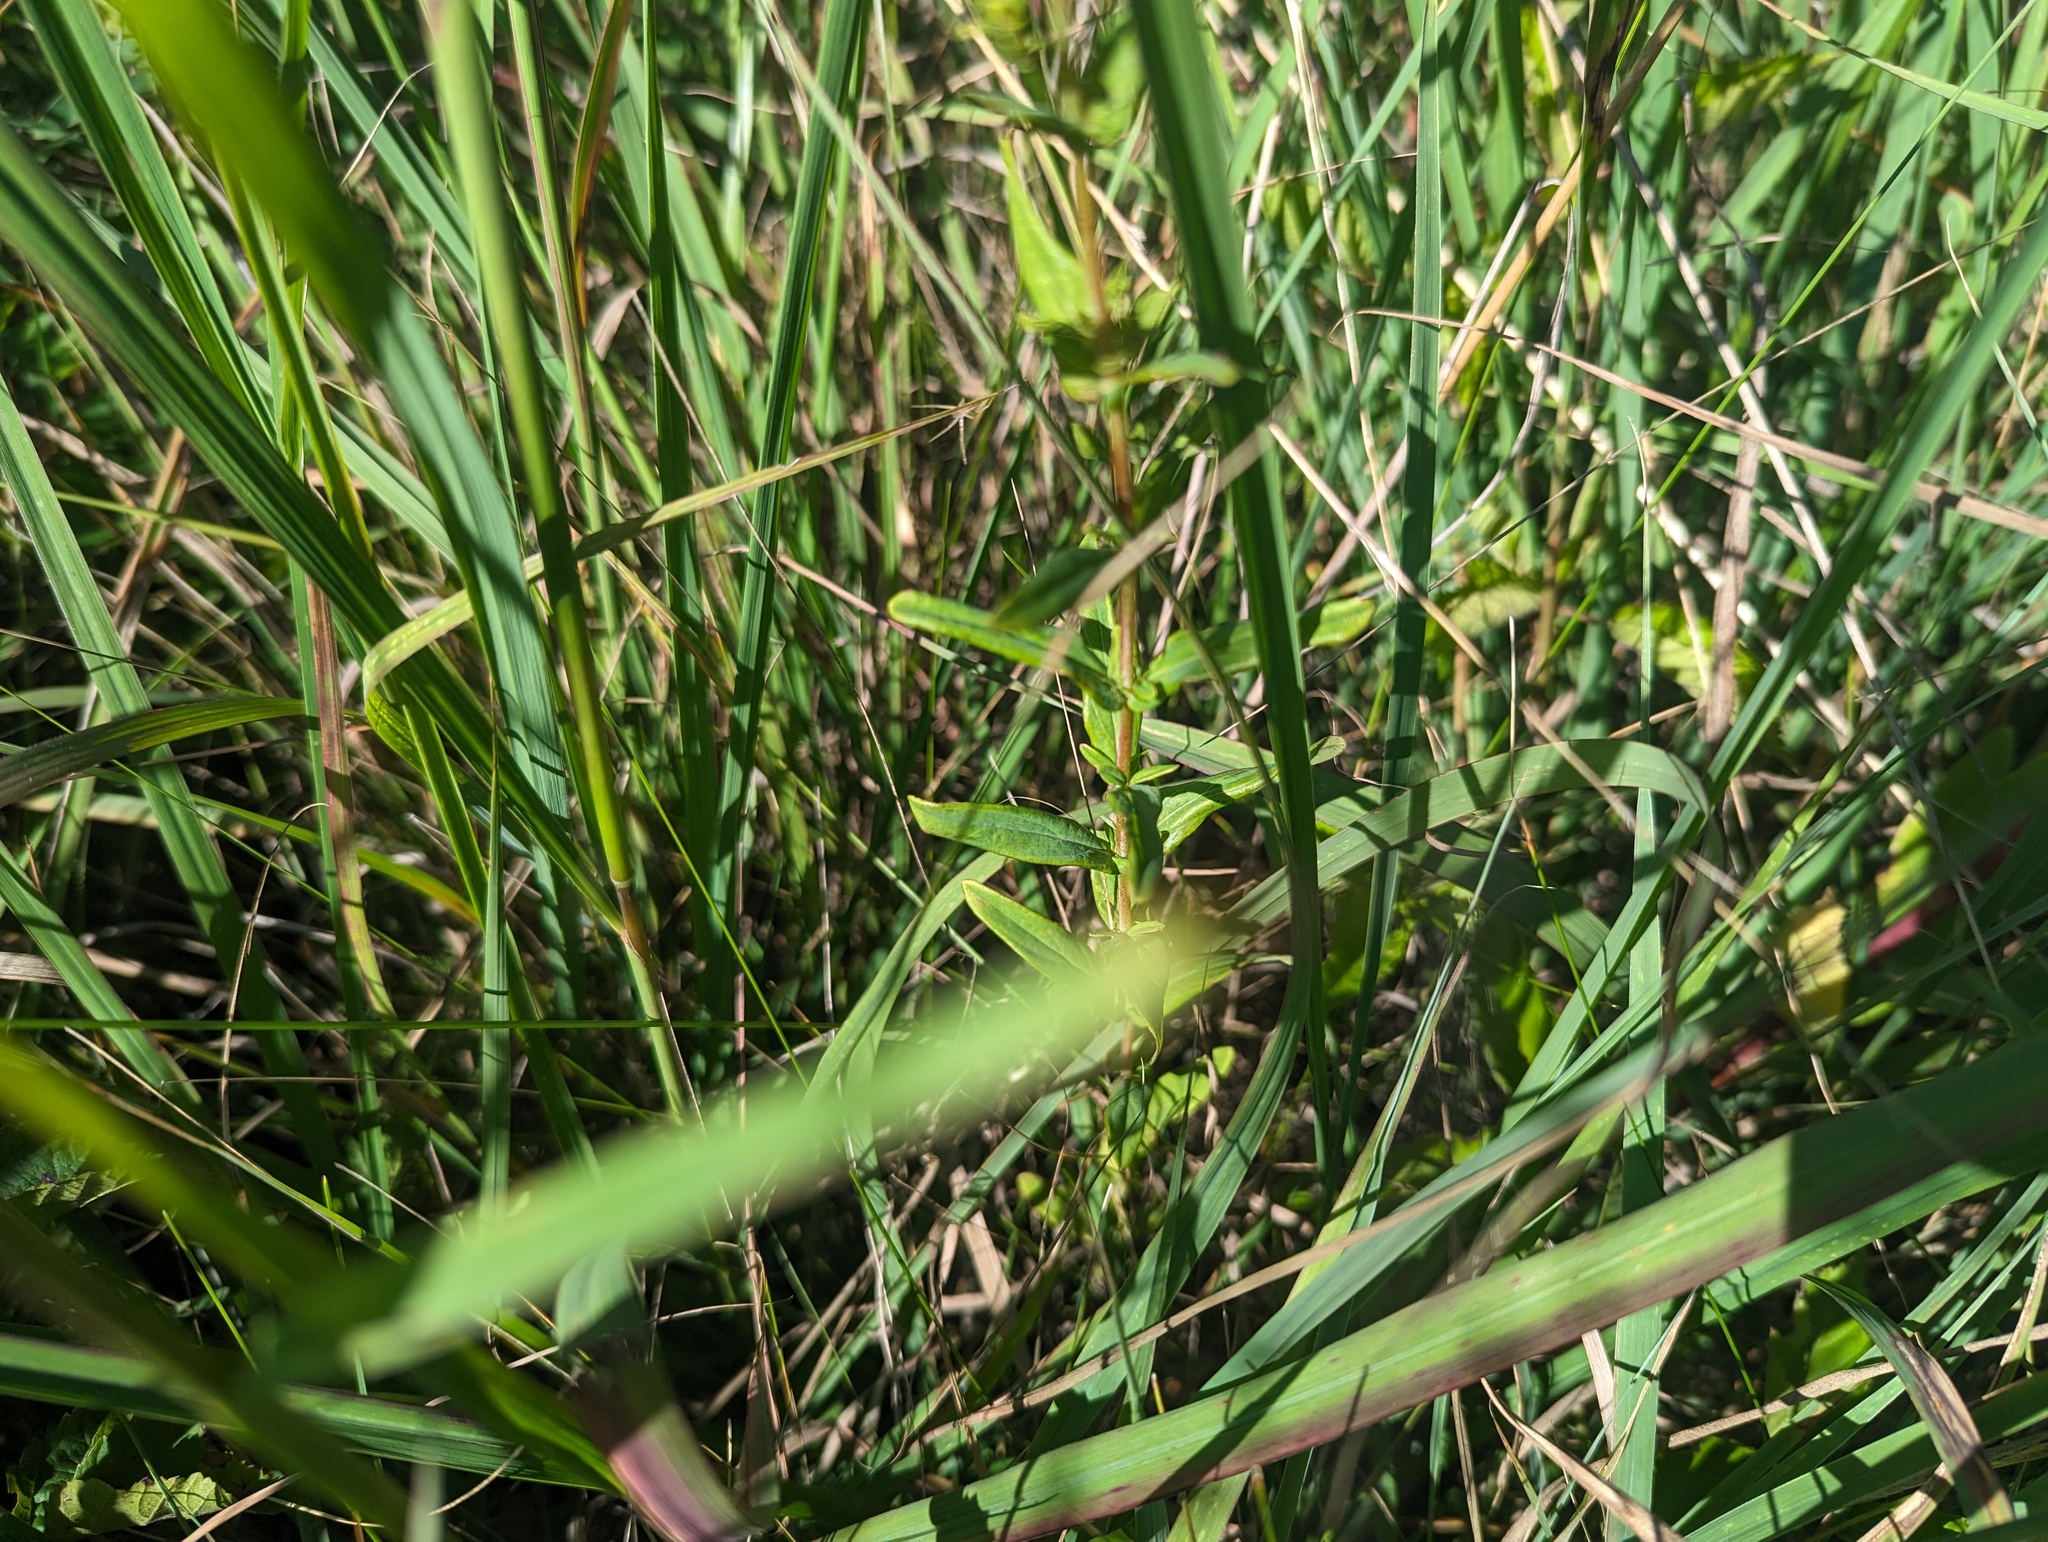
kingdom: Plantae
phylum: Tracheophyta
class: Magnoliopsida
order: Malpighiales
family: Hypericaceae
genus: Hypericum
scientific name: Hypericum sphaerocarpum
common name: Round-fruited st. john's-wort
